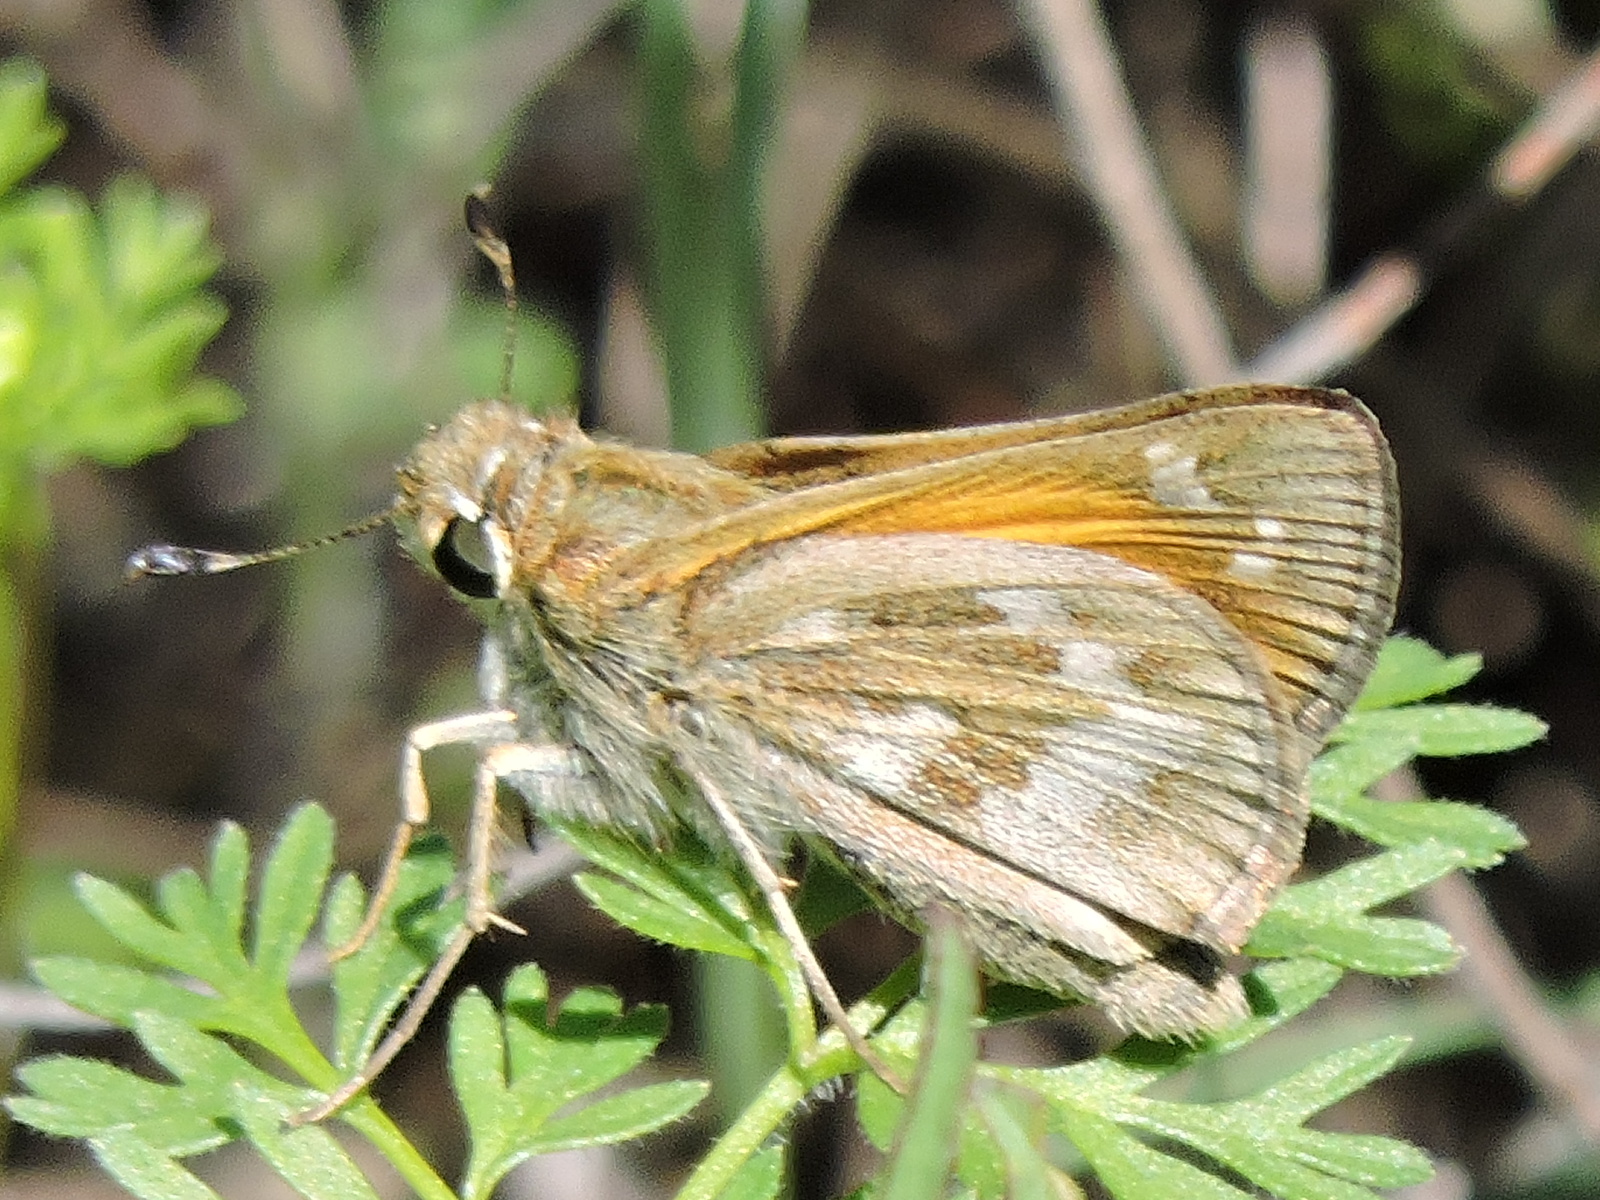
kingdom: Animalia
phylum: Arthropoda
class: Insecta
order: Lepidoptera
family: Hesperiidae
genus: Atalopedes
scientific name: Atalopedes
